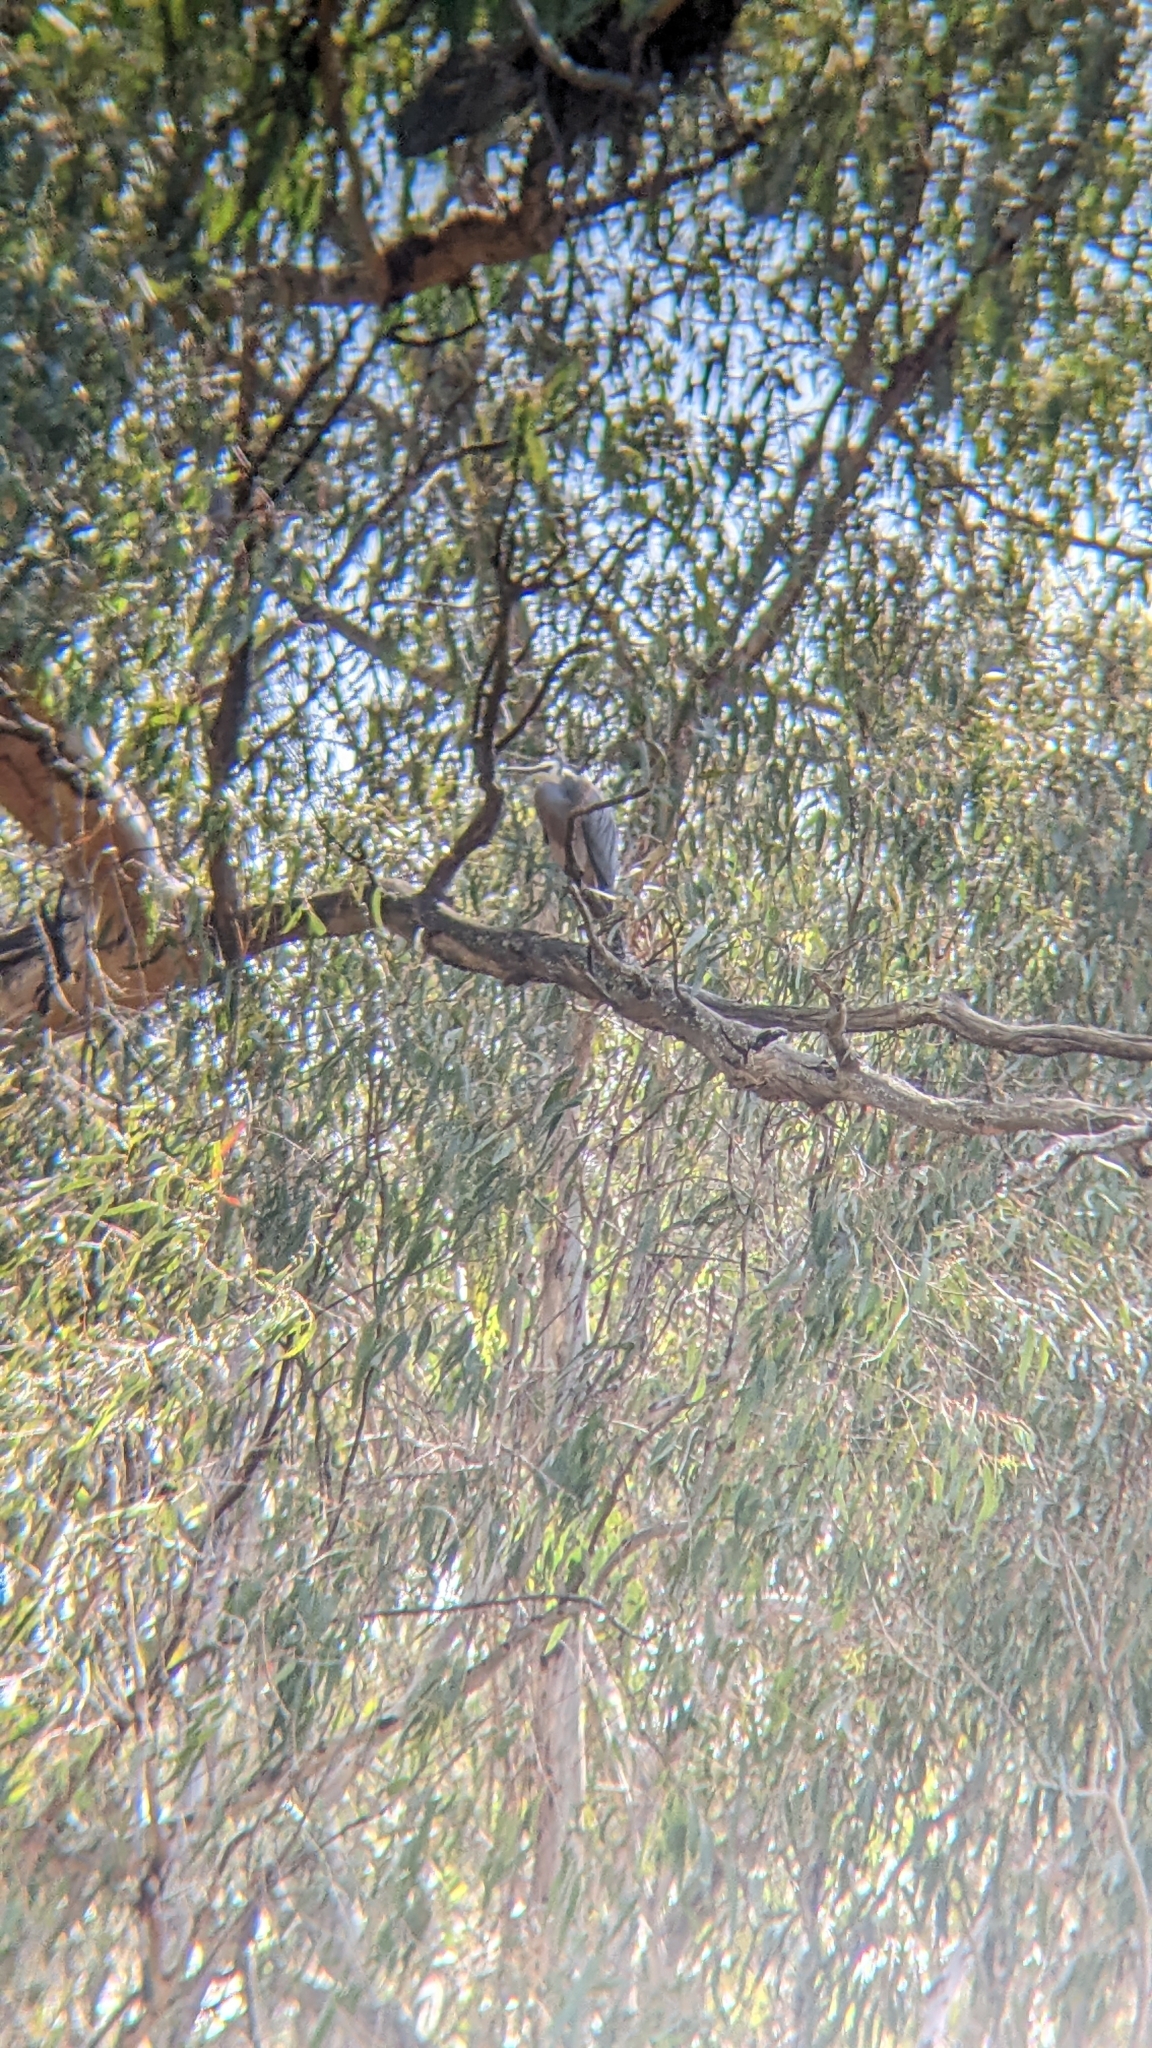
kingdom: Animalia
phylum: Chordata
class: Aves
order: Pelecaniformes
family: Ardeidae
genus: Egretta
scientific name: Egretta novaehollandiae
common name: White-faced heron
